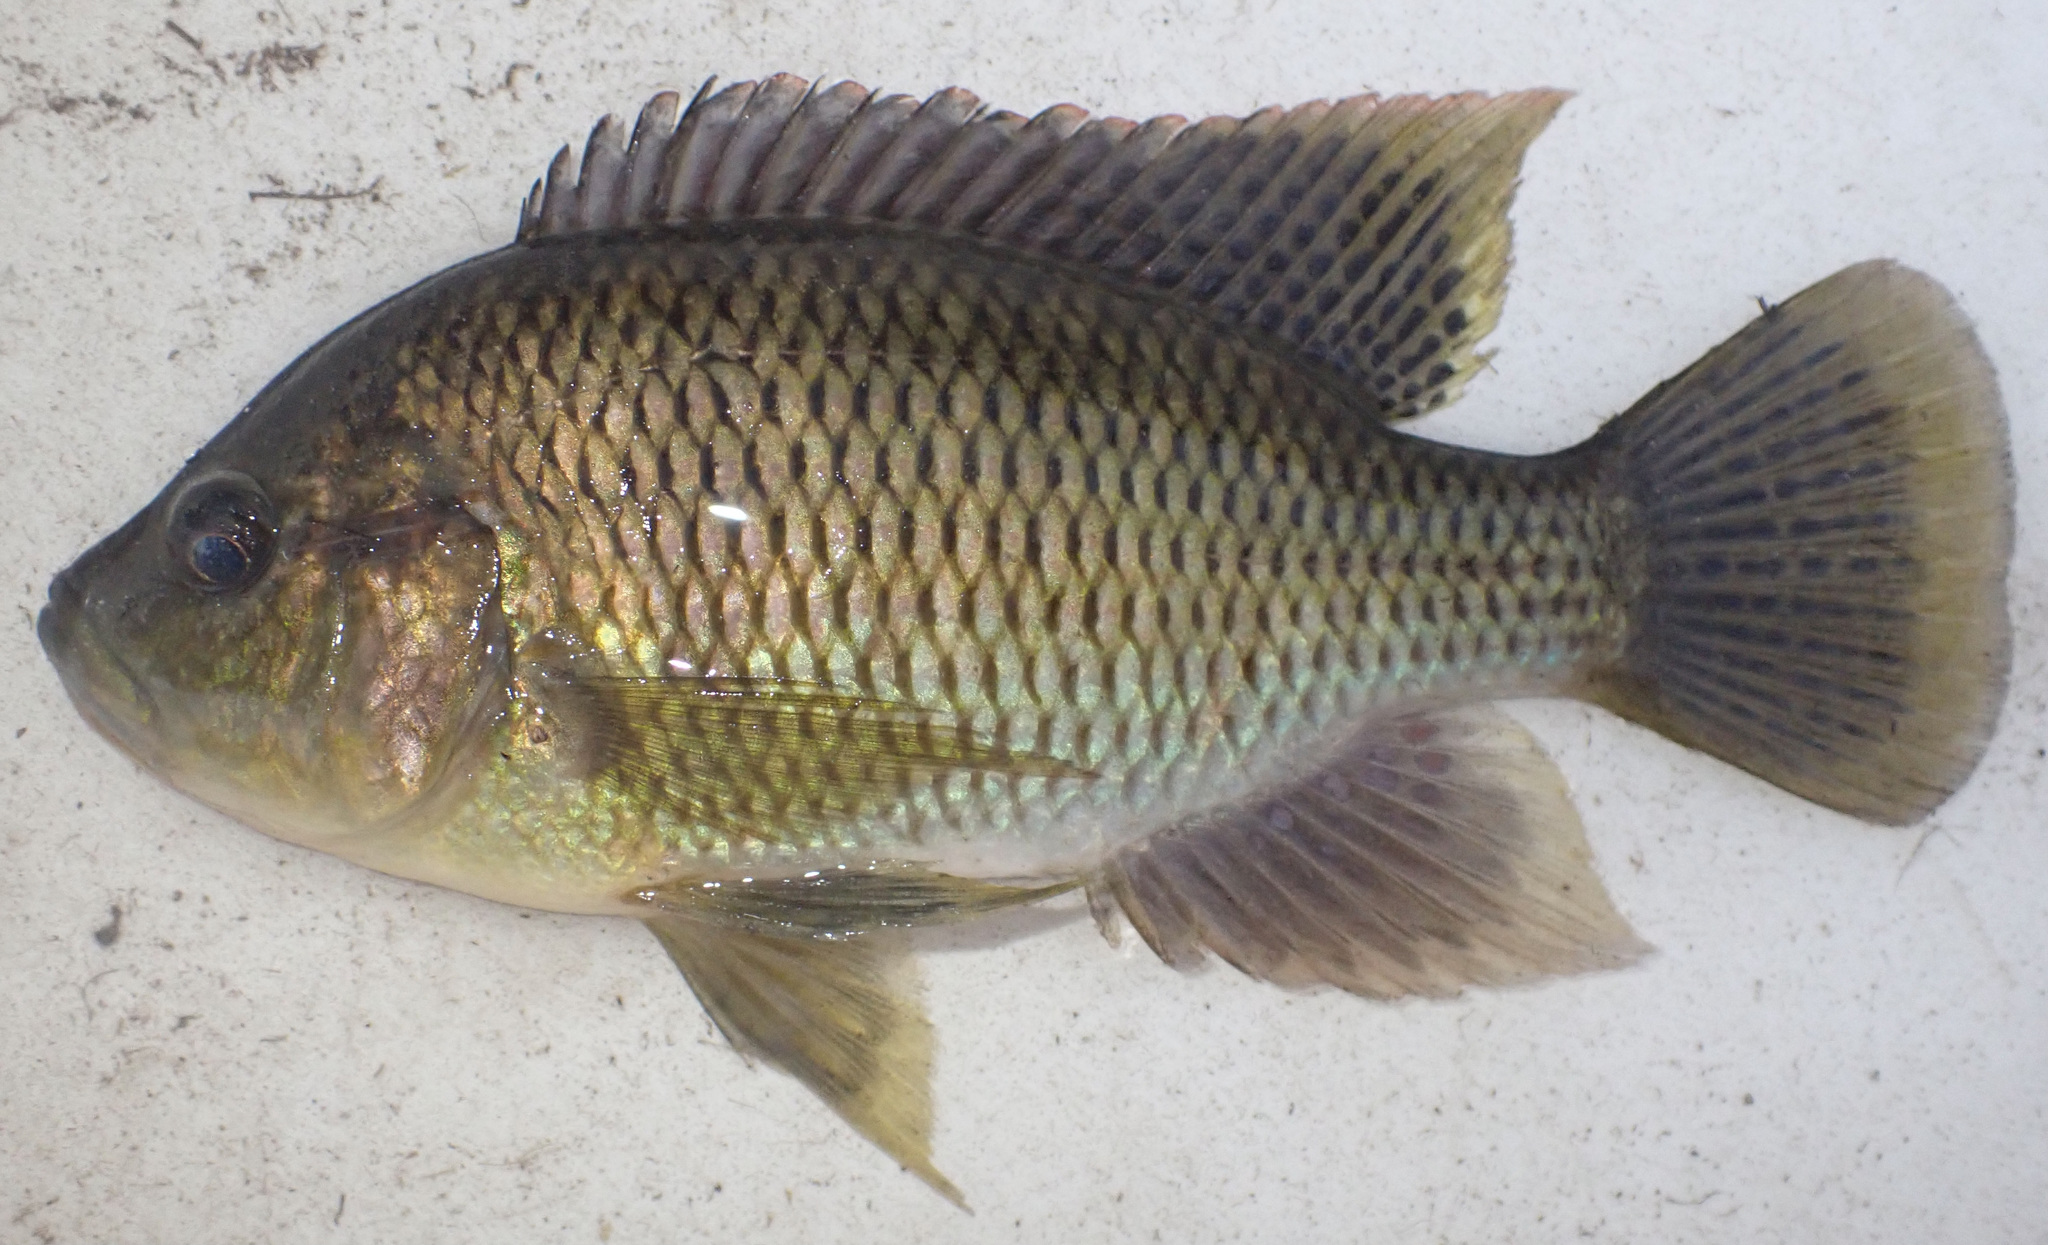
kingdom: Animalia
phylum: Chordata
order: Perciformes
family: Cichlidae
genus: Sargochromis
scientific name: Sargochromis carlottae
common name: Rainbow happy
